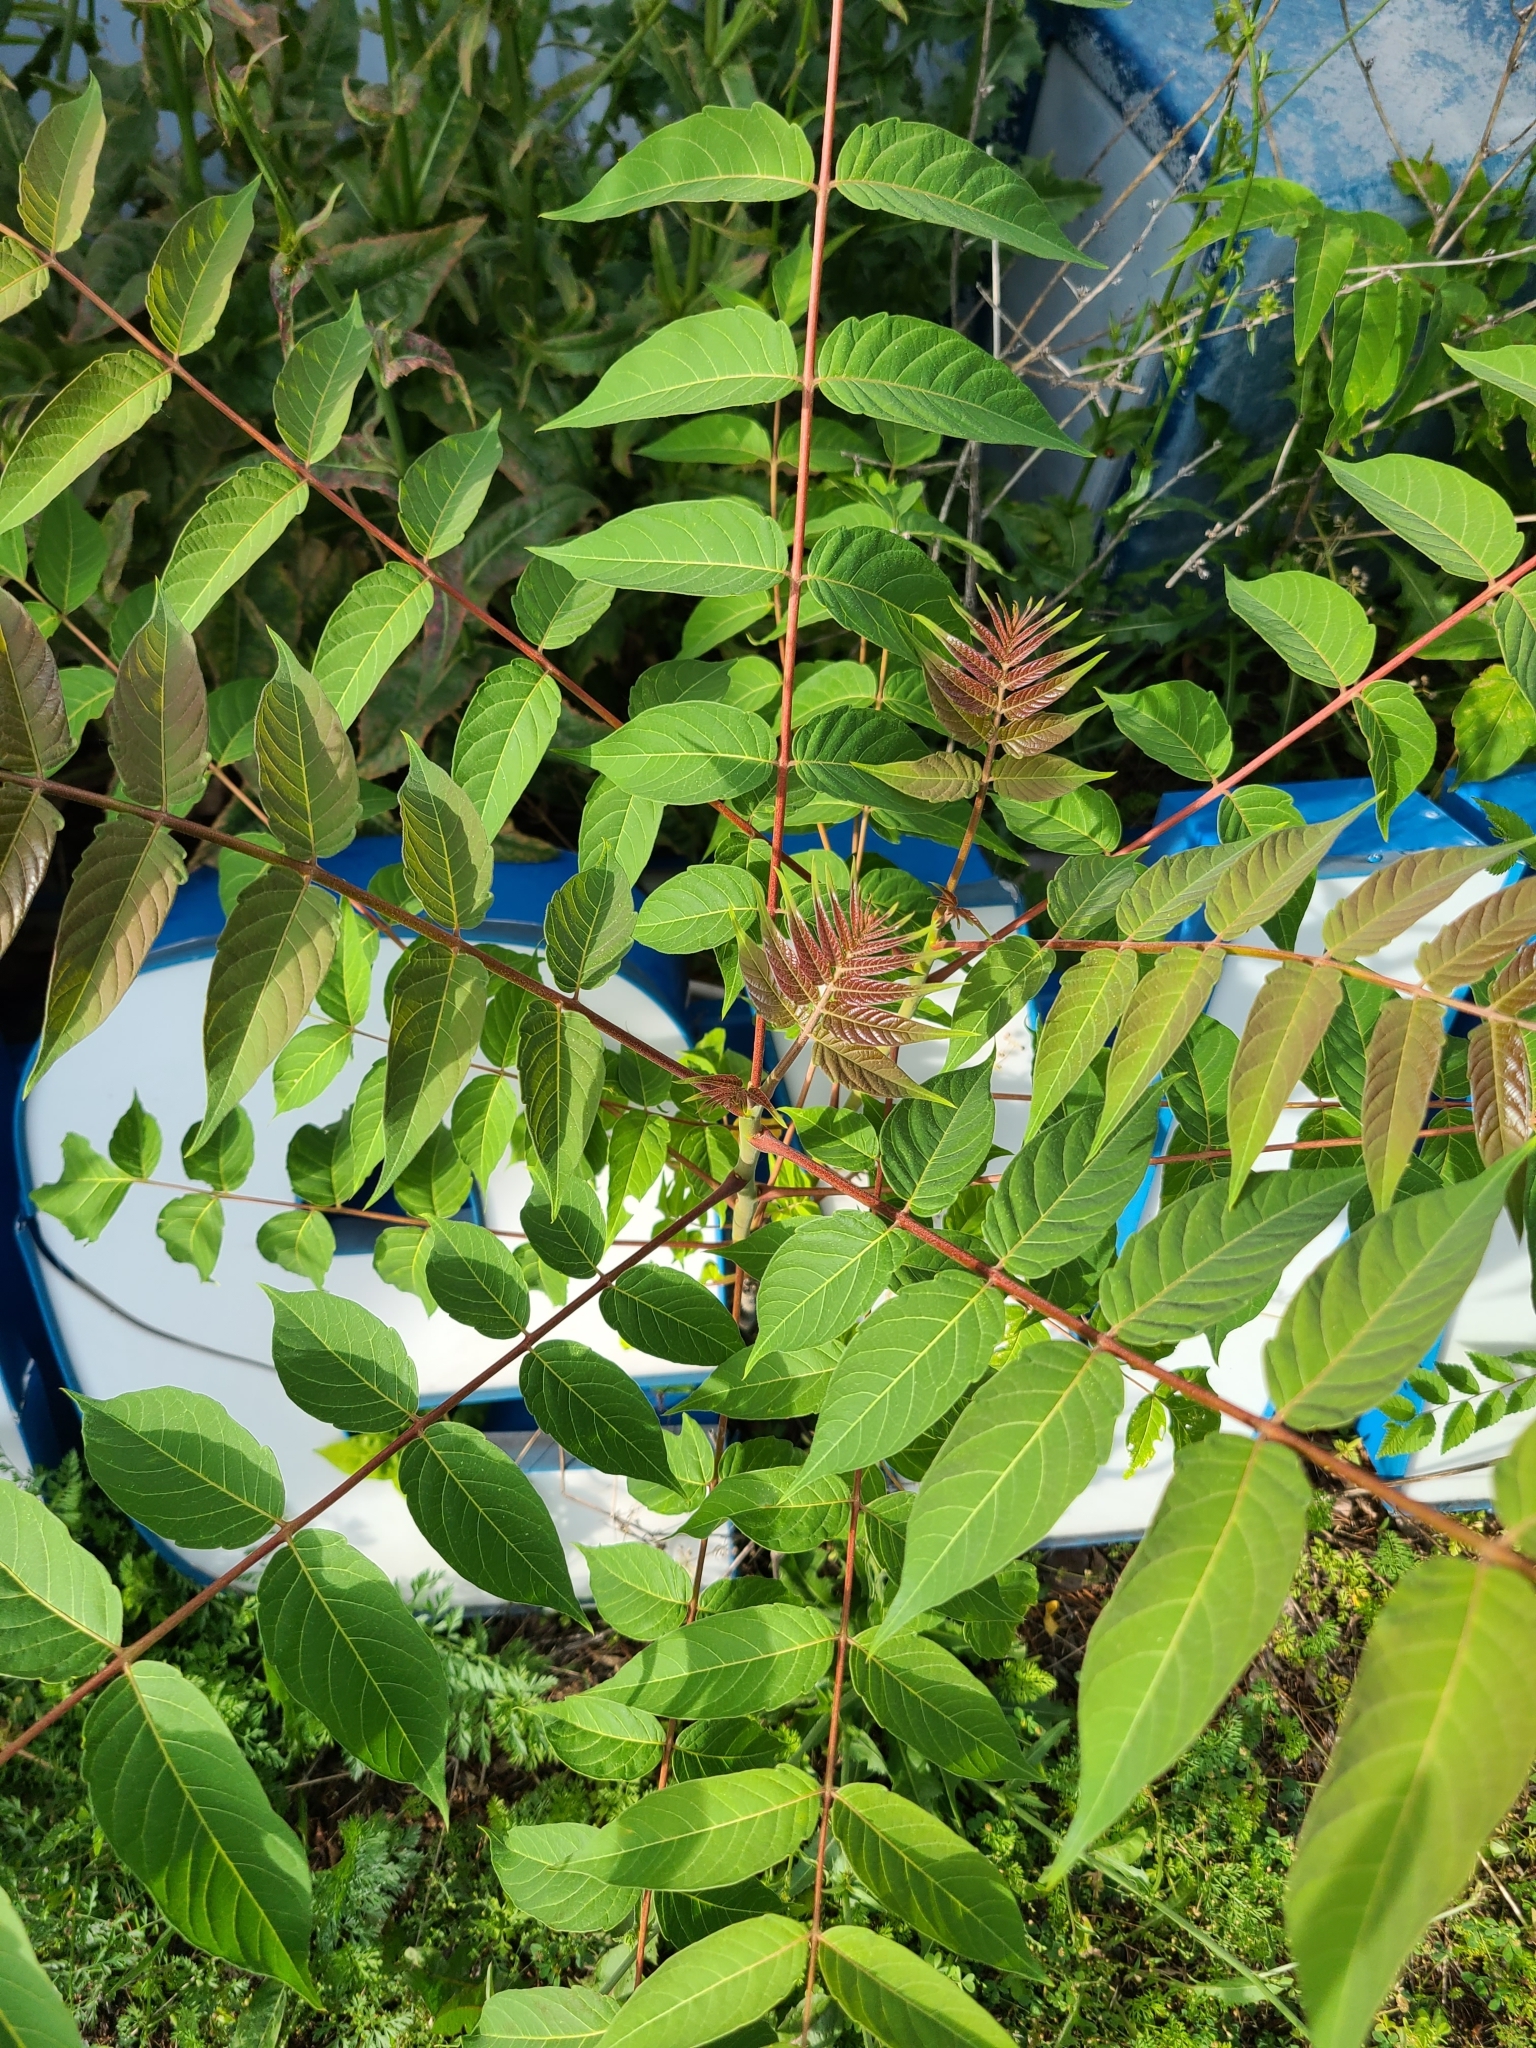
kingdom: Plantae
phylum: Tracheophyta
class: Magnoliopsida
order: Sapindales
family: Simaroubaceae
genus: Ailanthus
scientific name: Ailanthus altissima
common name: Tree-of-heaven
